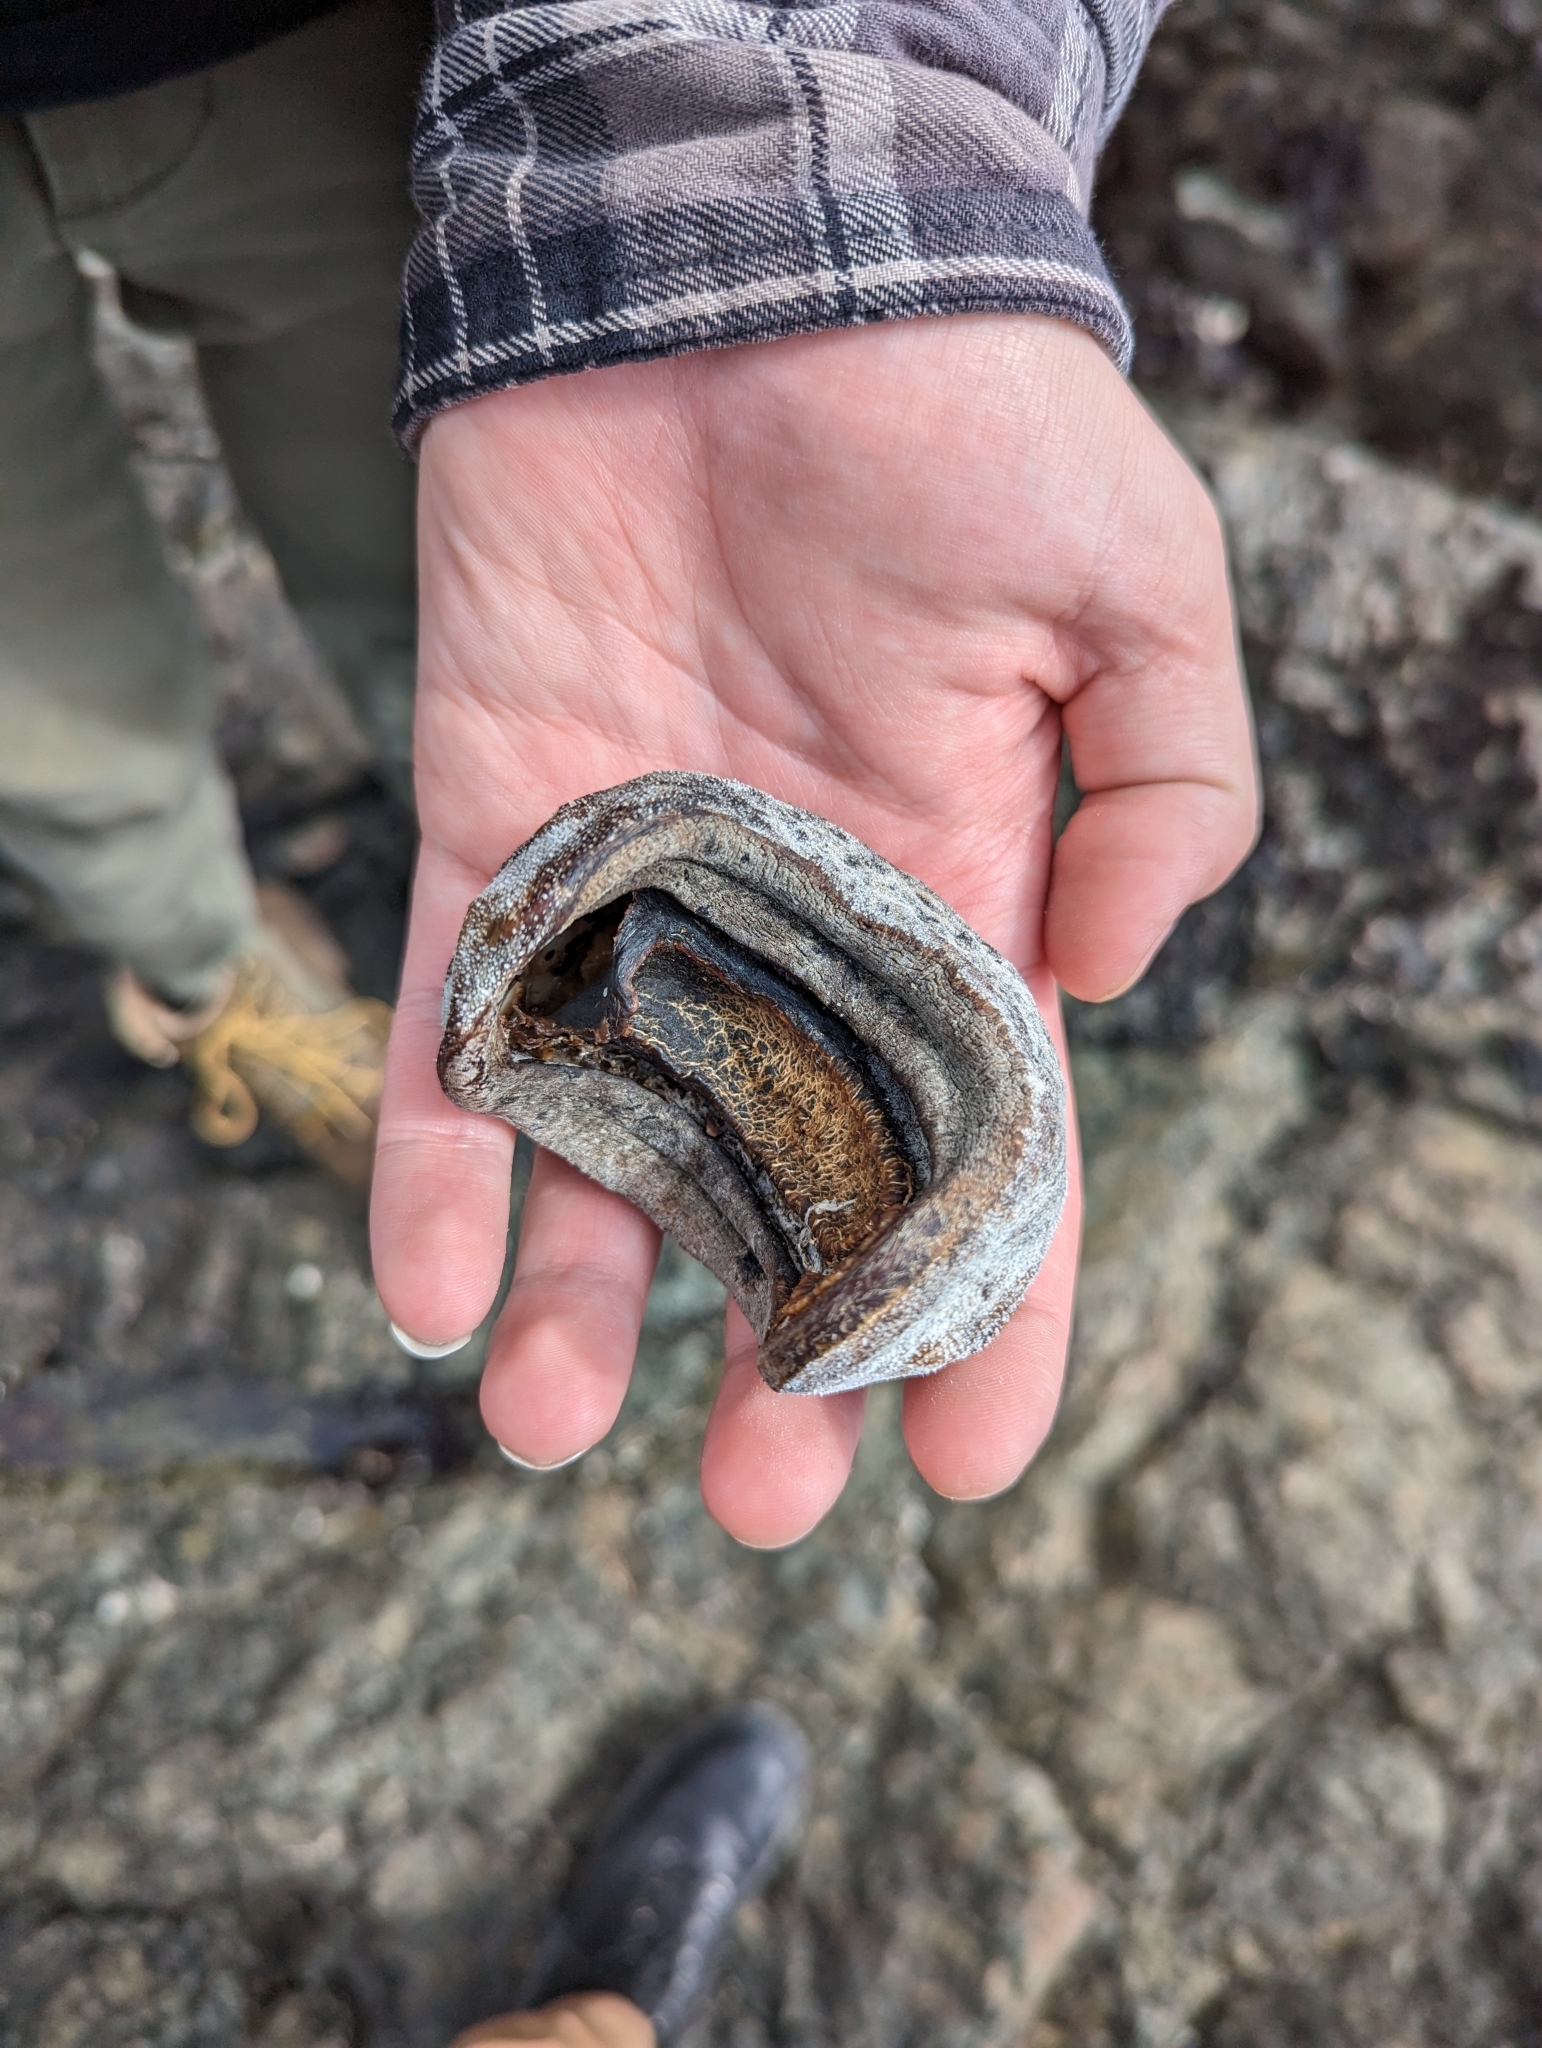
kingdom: Animalia
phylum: Mollusca
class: Polyplacophora
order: Chitonida
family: Acanthochitonidae
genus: Cryptochiton
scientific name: Cryptochiton stelleri
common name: Giant pacific chiton
